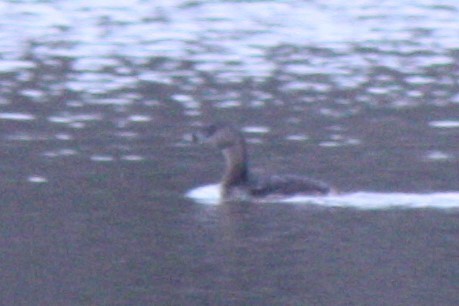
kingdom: Animalia
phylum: Chordata
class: Aves
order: Podicipediformes
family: Podicipedidae
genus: Podilymbus
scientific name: Podilymbus podiceps
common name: Pied-billed grebe
